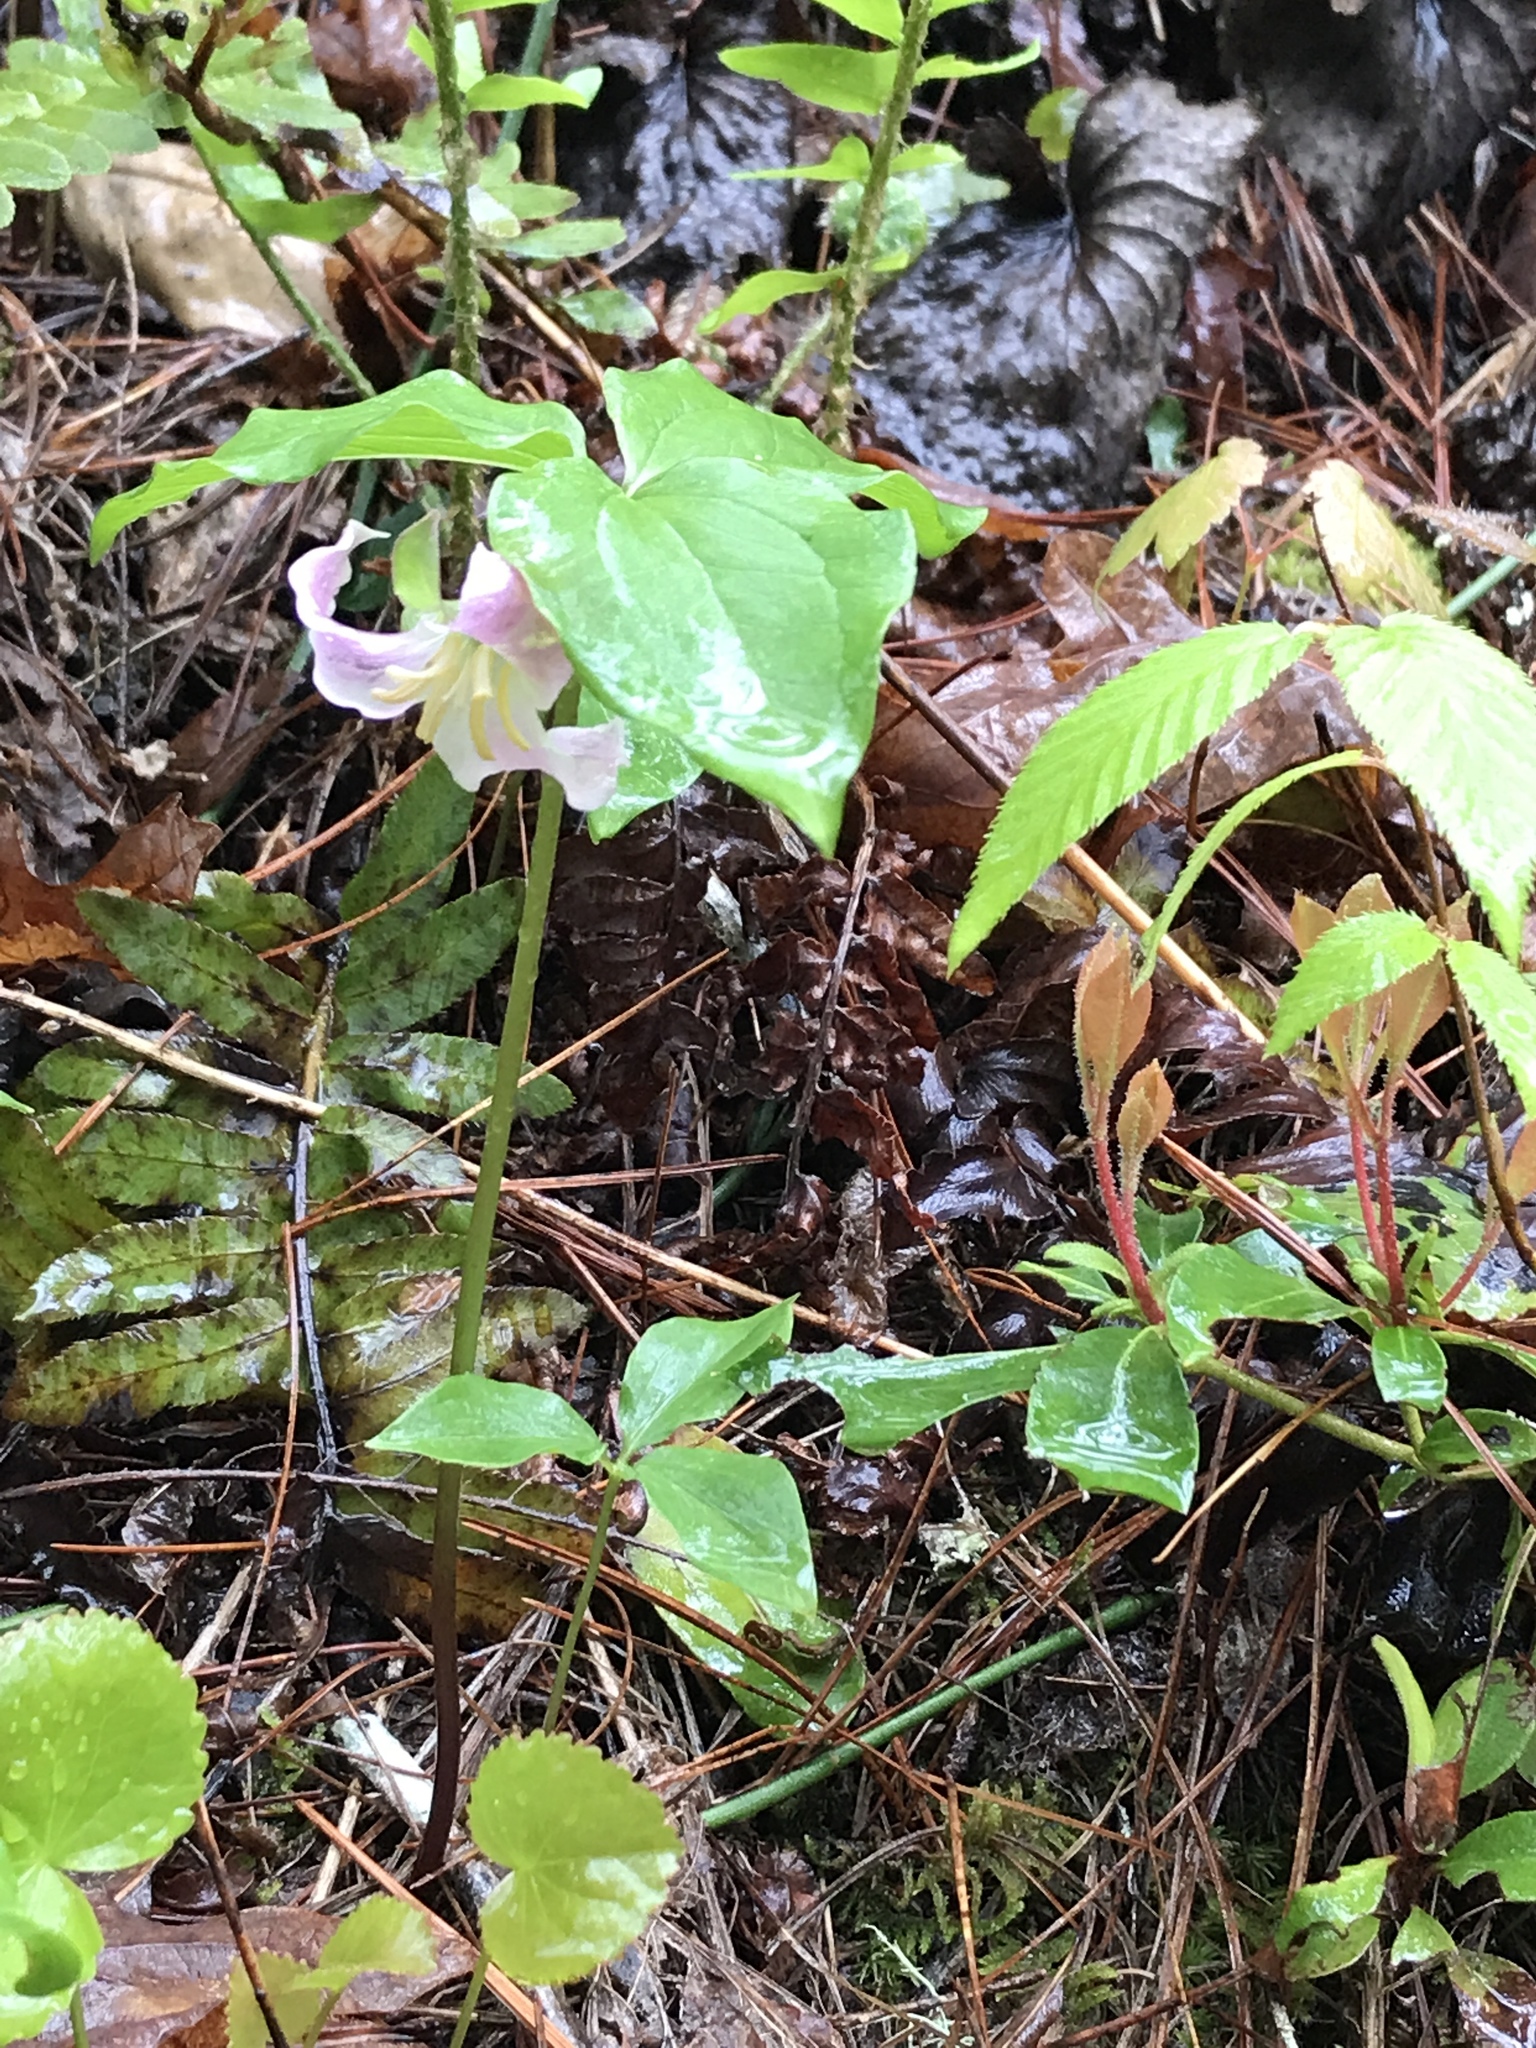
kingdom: Plantae
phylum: Tracheophyta
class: Liliopsida
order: Liliales
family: Melanthiaceae
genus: Trillium
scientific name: Trillium catesbaei
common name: Bashful trillium
